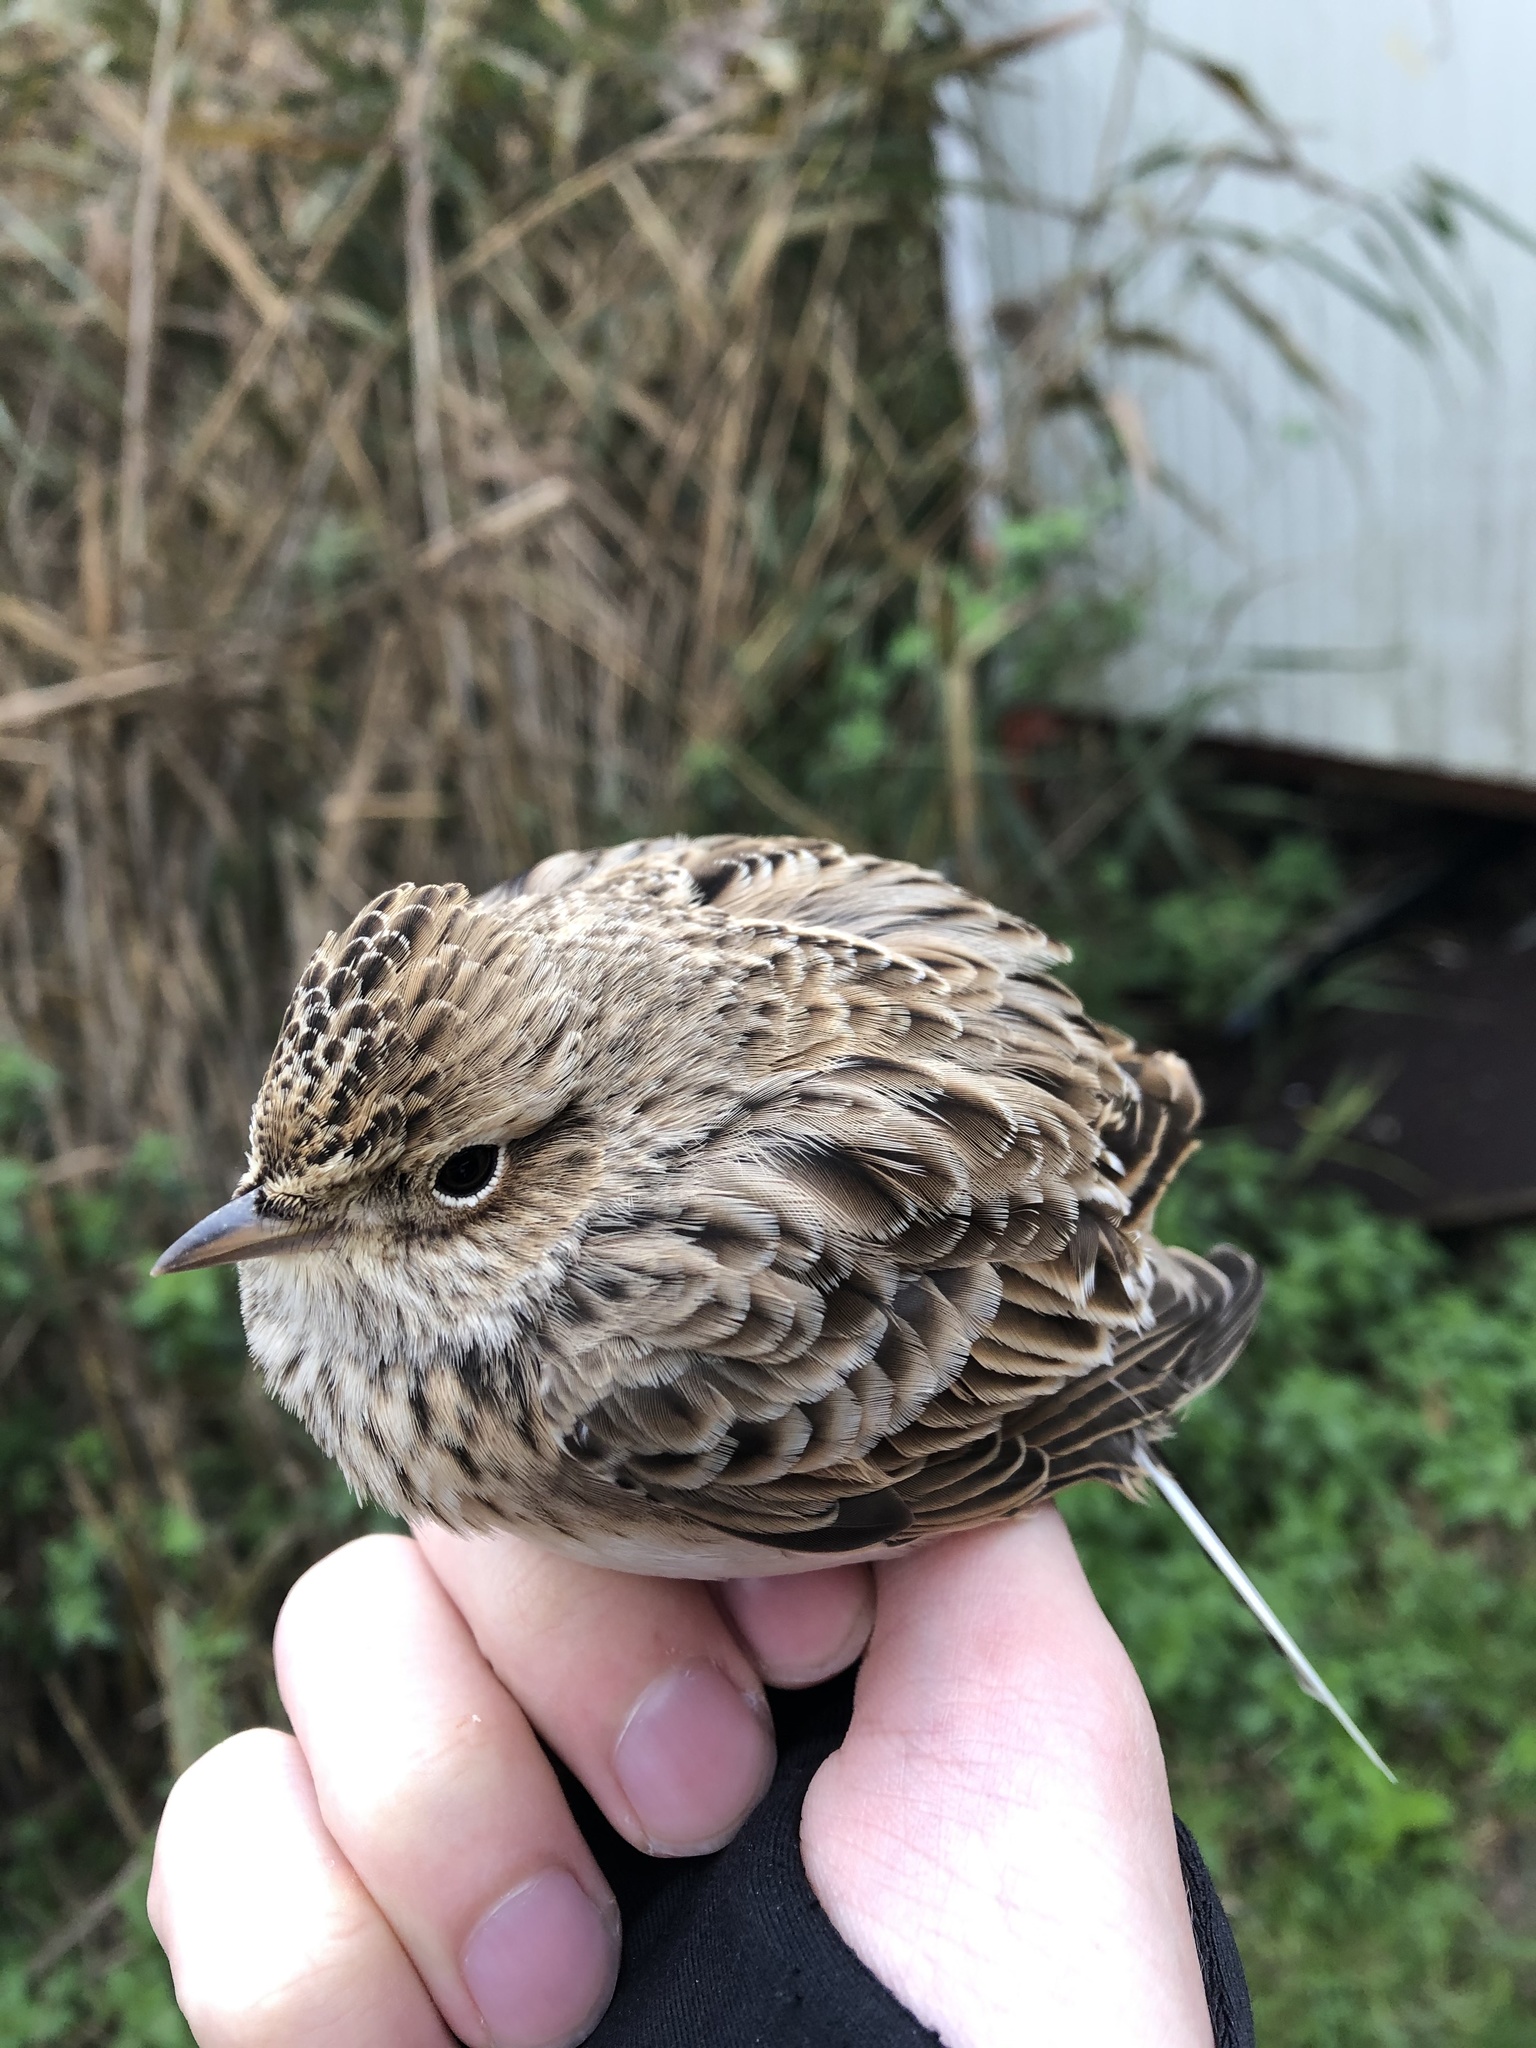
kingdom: Animalia
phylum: Chordata
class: Aves
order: Passeriformes
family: Alaudidae
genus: Alauda
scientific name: Alauda arvensis
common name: Eurasian skylark
